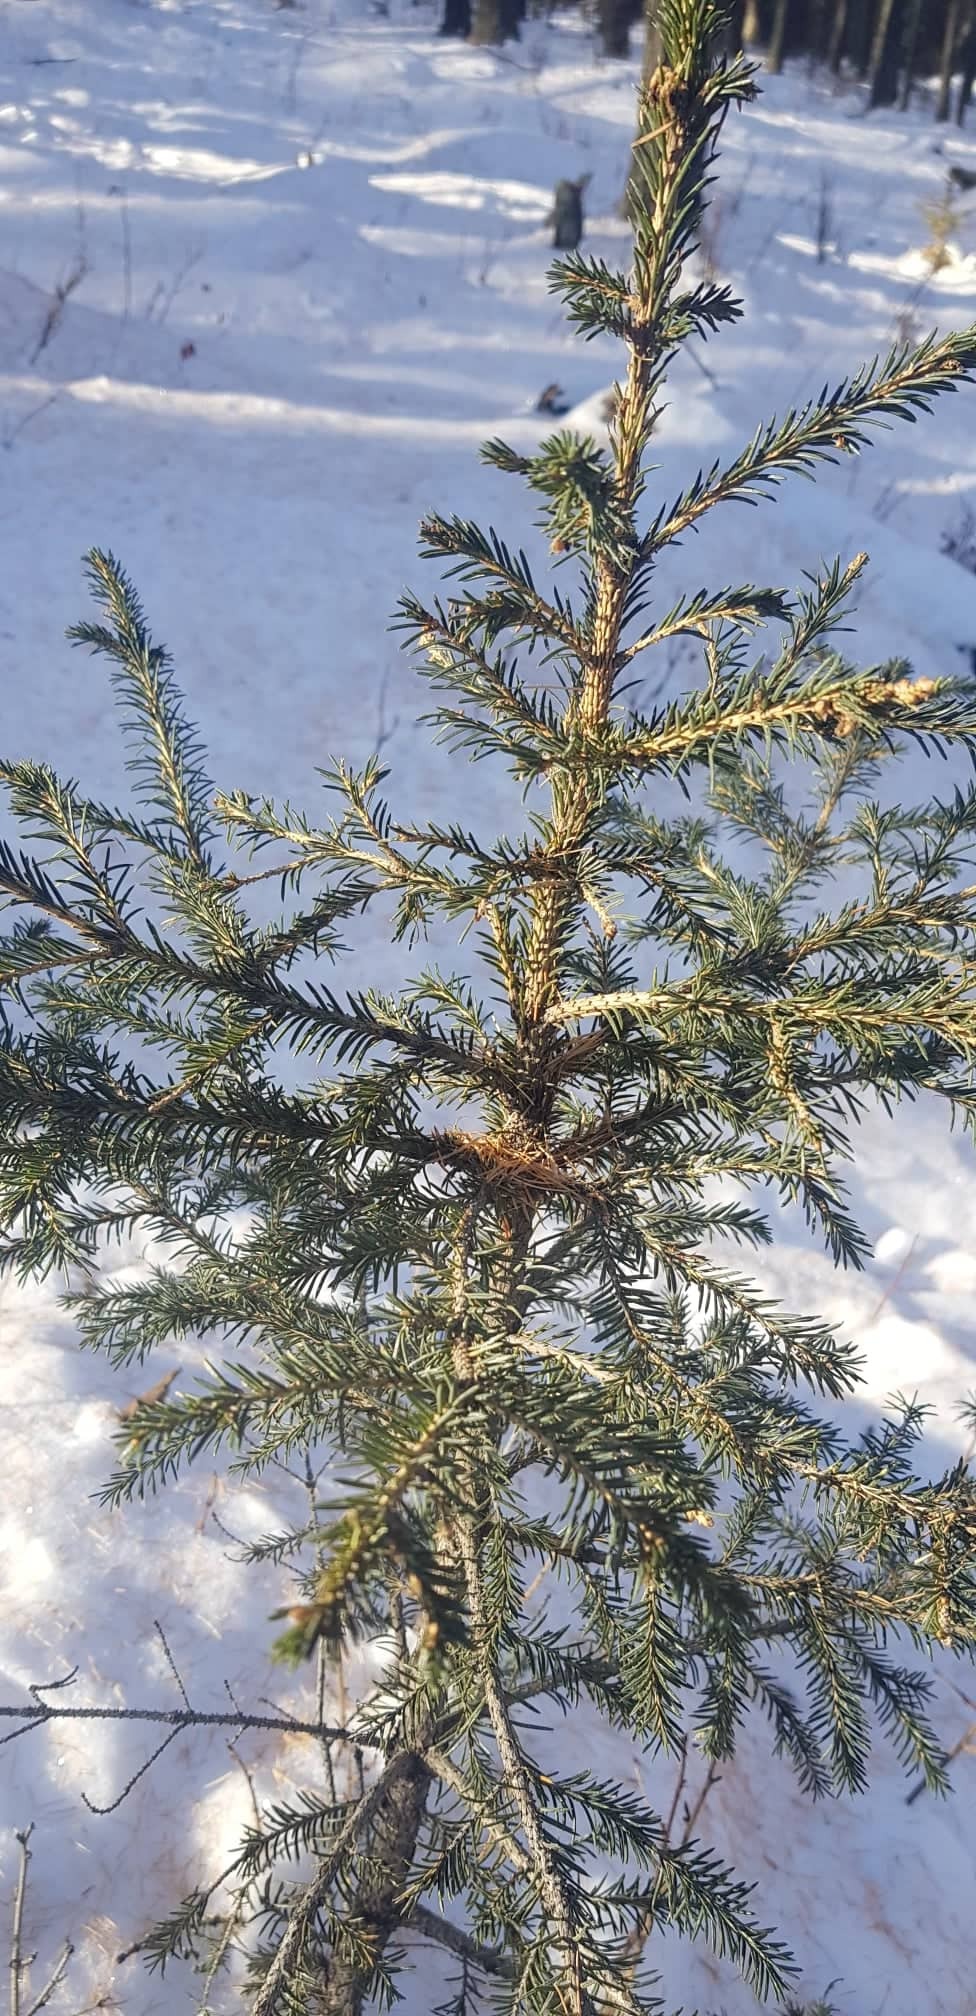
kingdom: Plantae
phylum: Tracheophyta
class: Pinopsida
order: Pinales
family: Pinaceae
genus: Picea
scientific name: Picea obovata
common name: Siberian spruce
